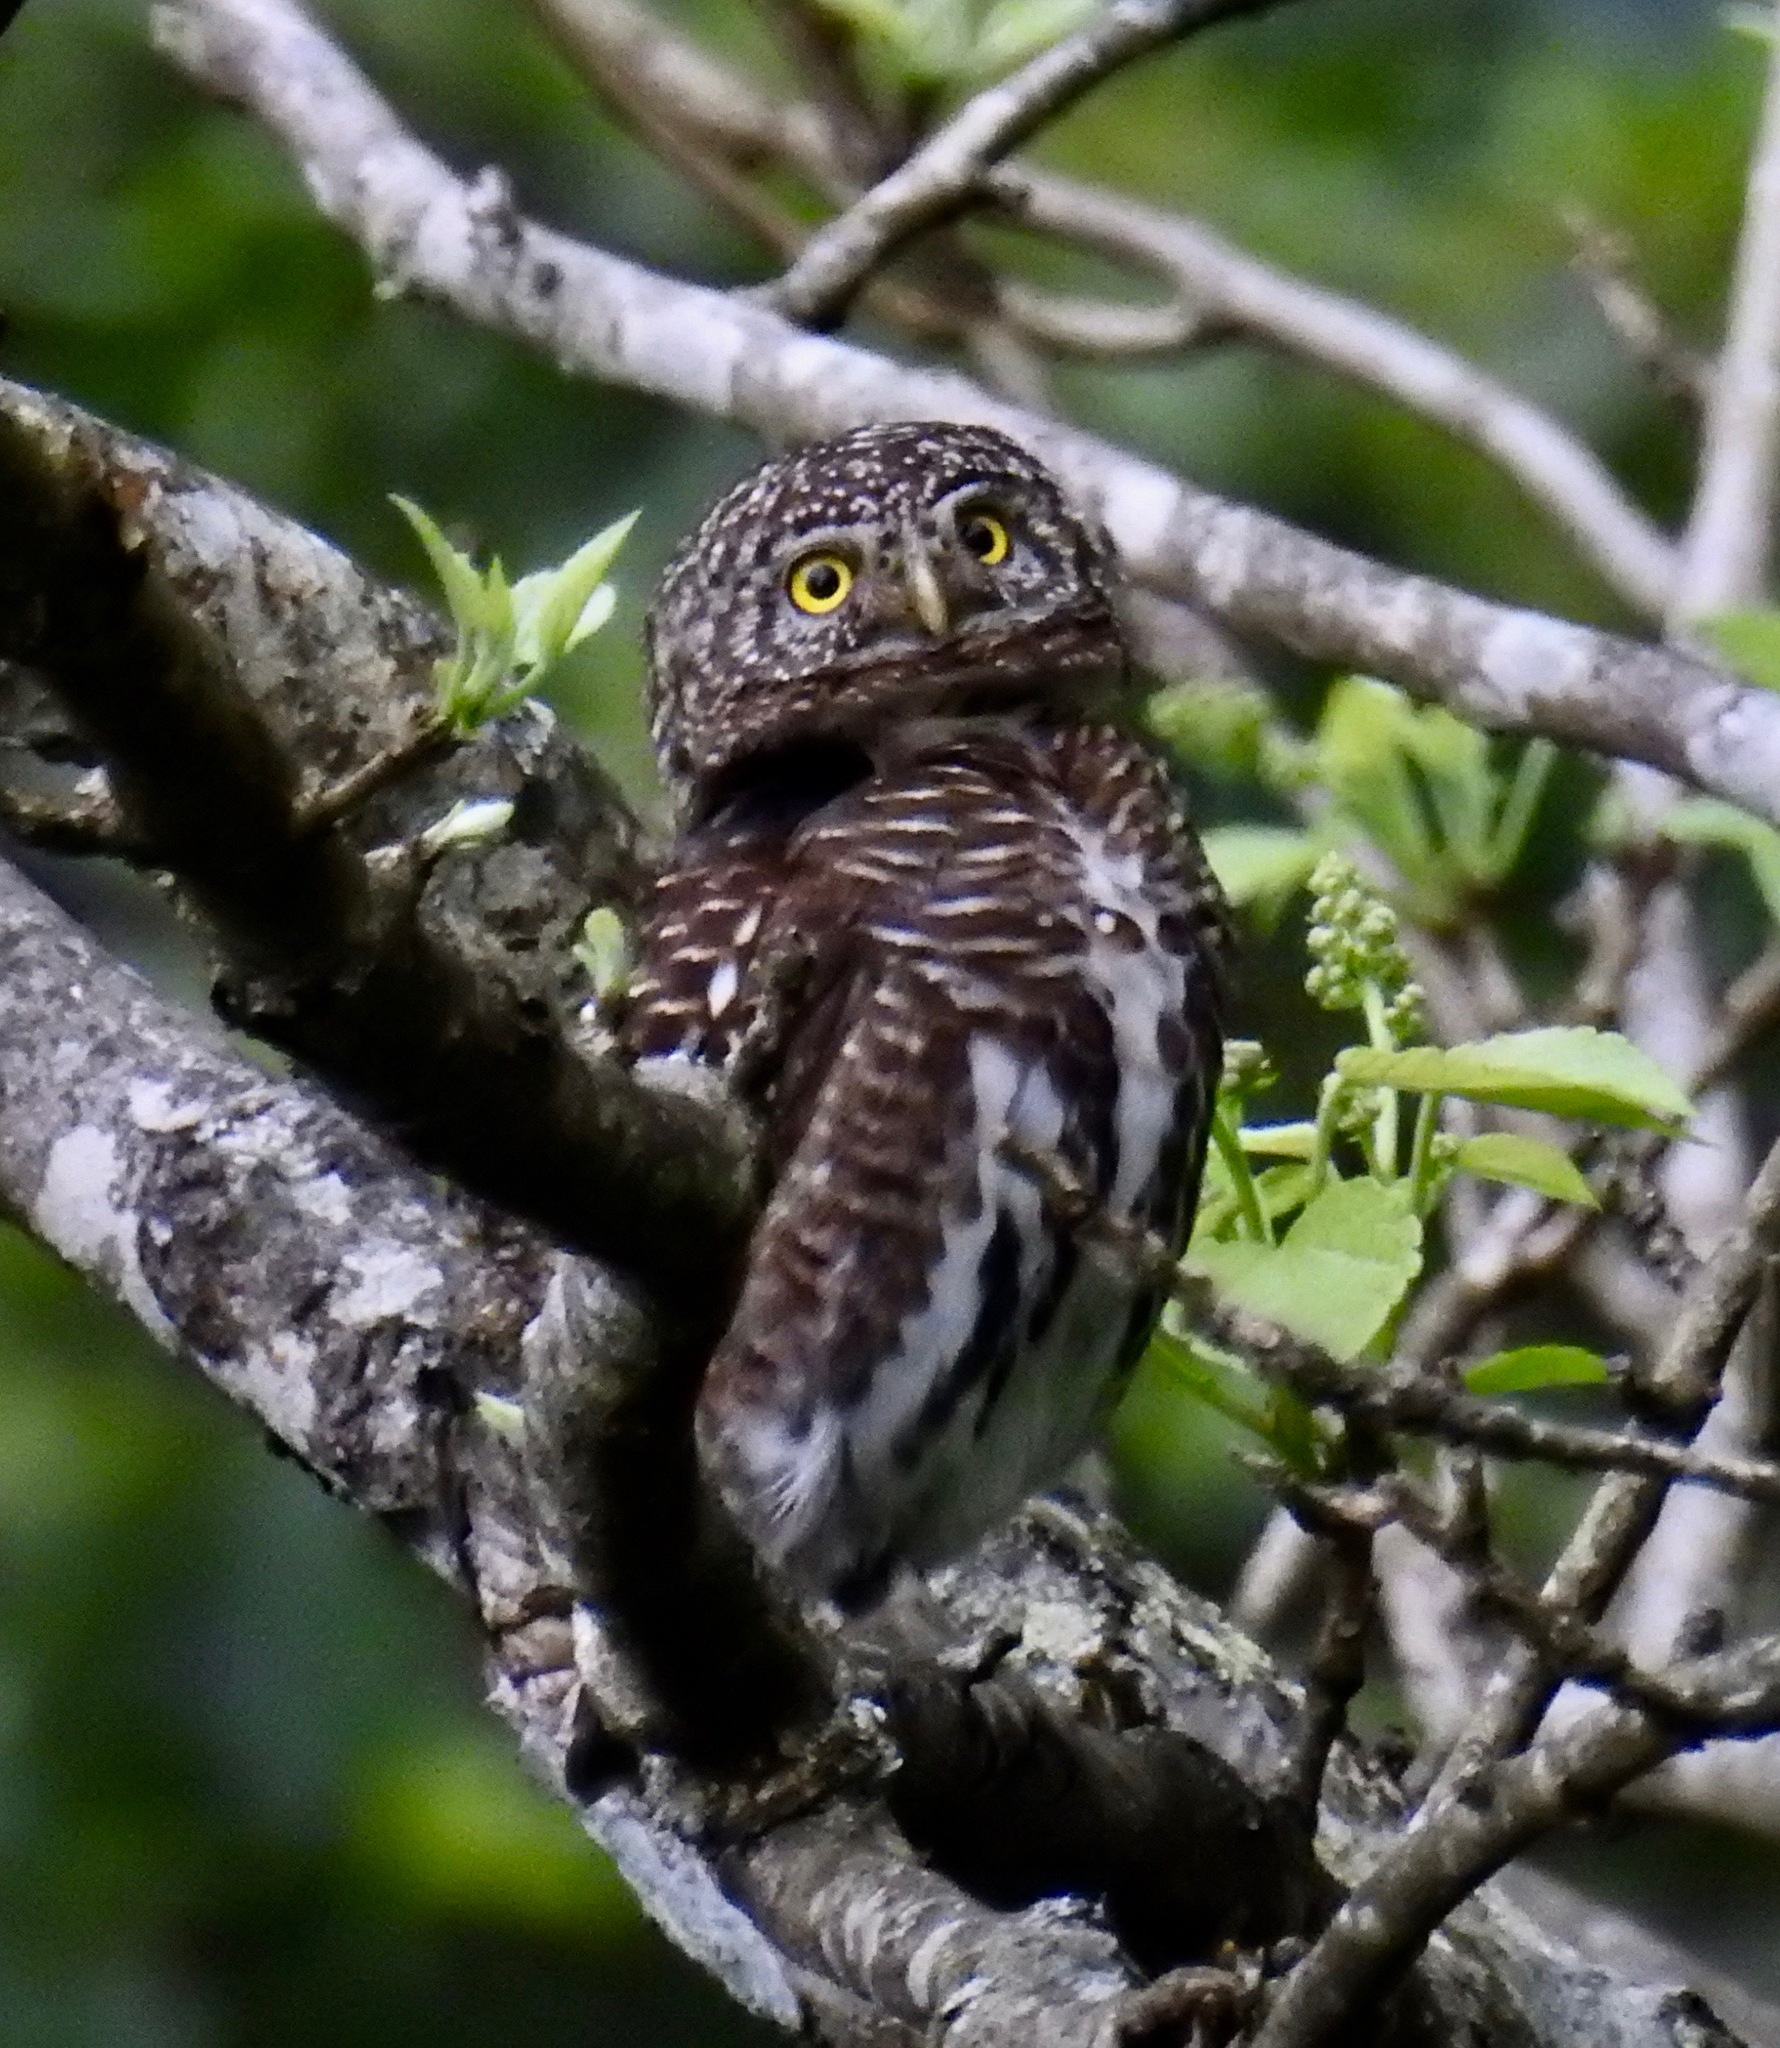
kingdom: Animalia
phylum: Chordata
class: Aves
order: Strigiformes
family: Strigidae
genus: Glaucidium
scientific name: Glaucidium brodiei
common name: Collared owlet
